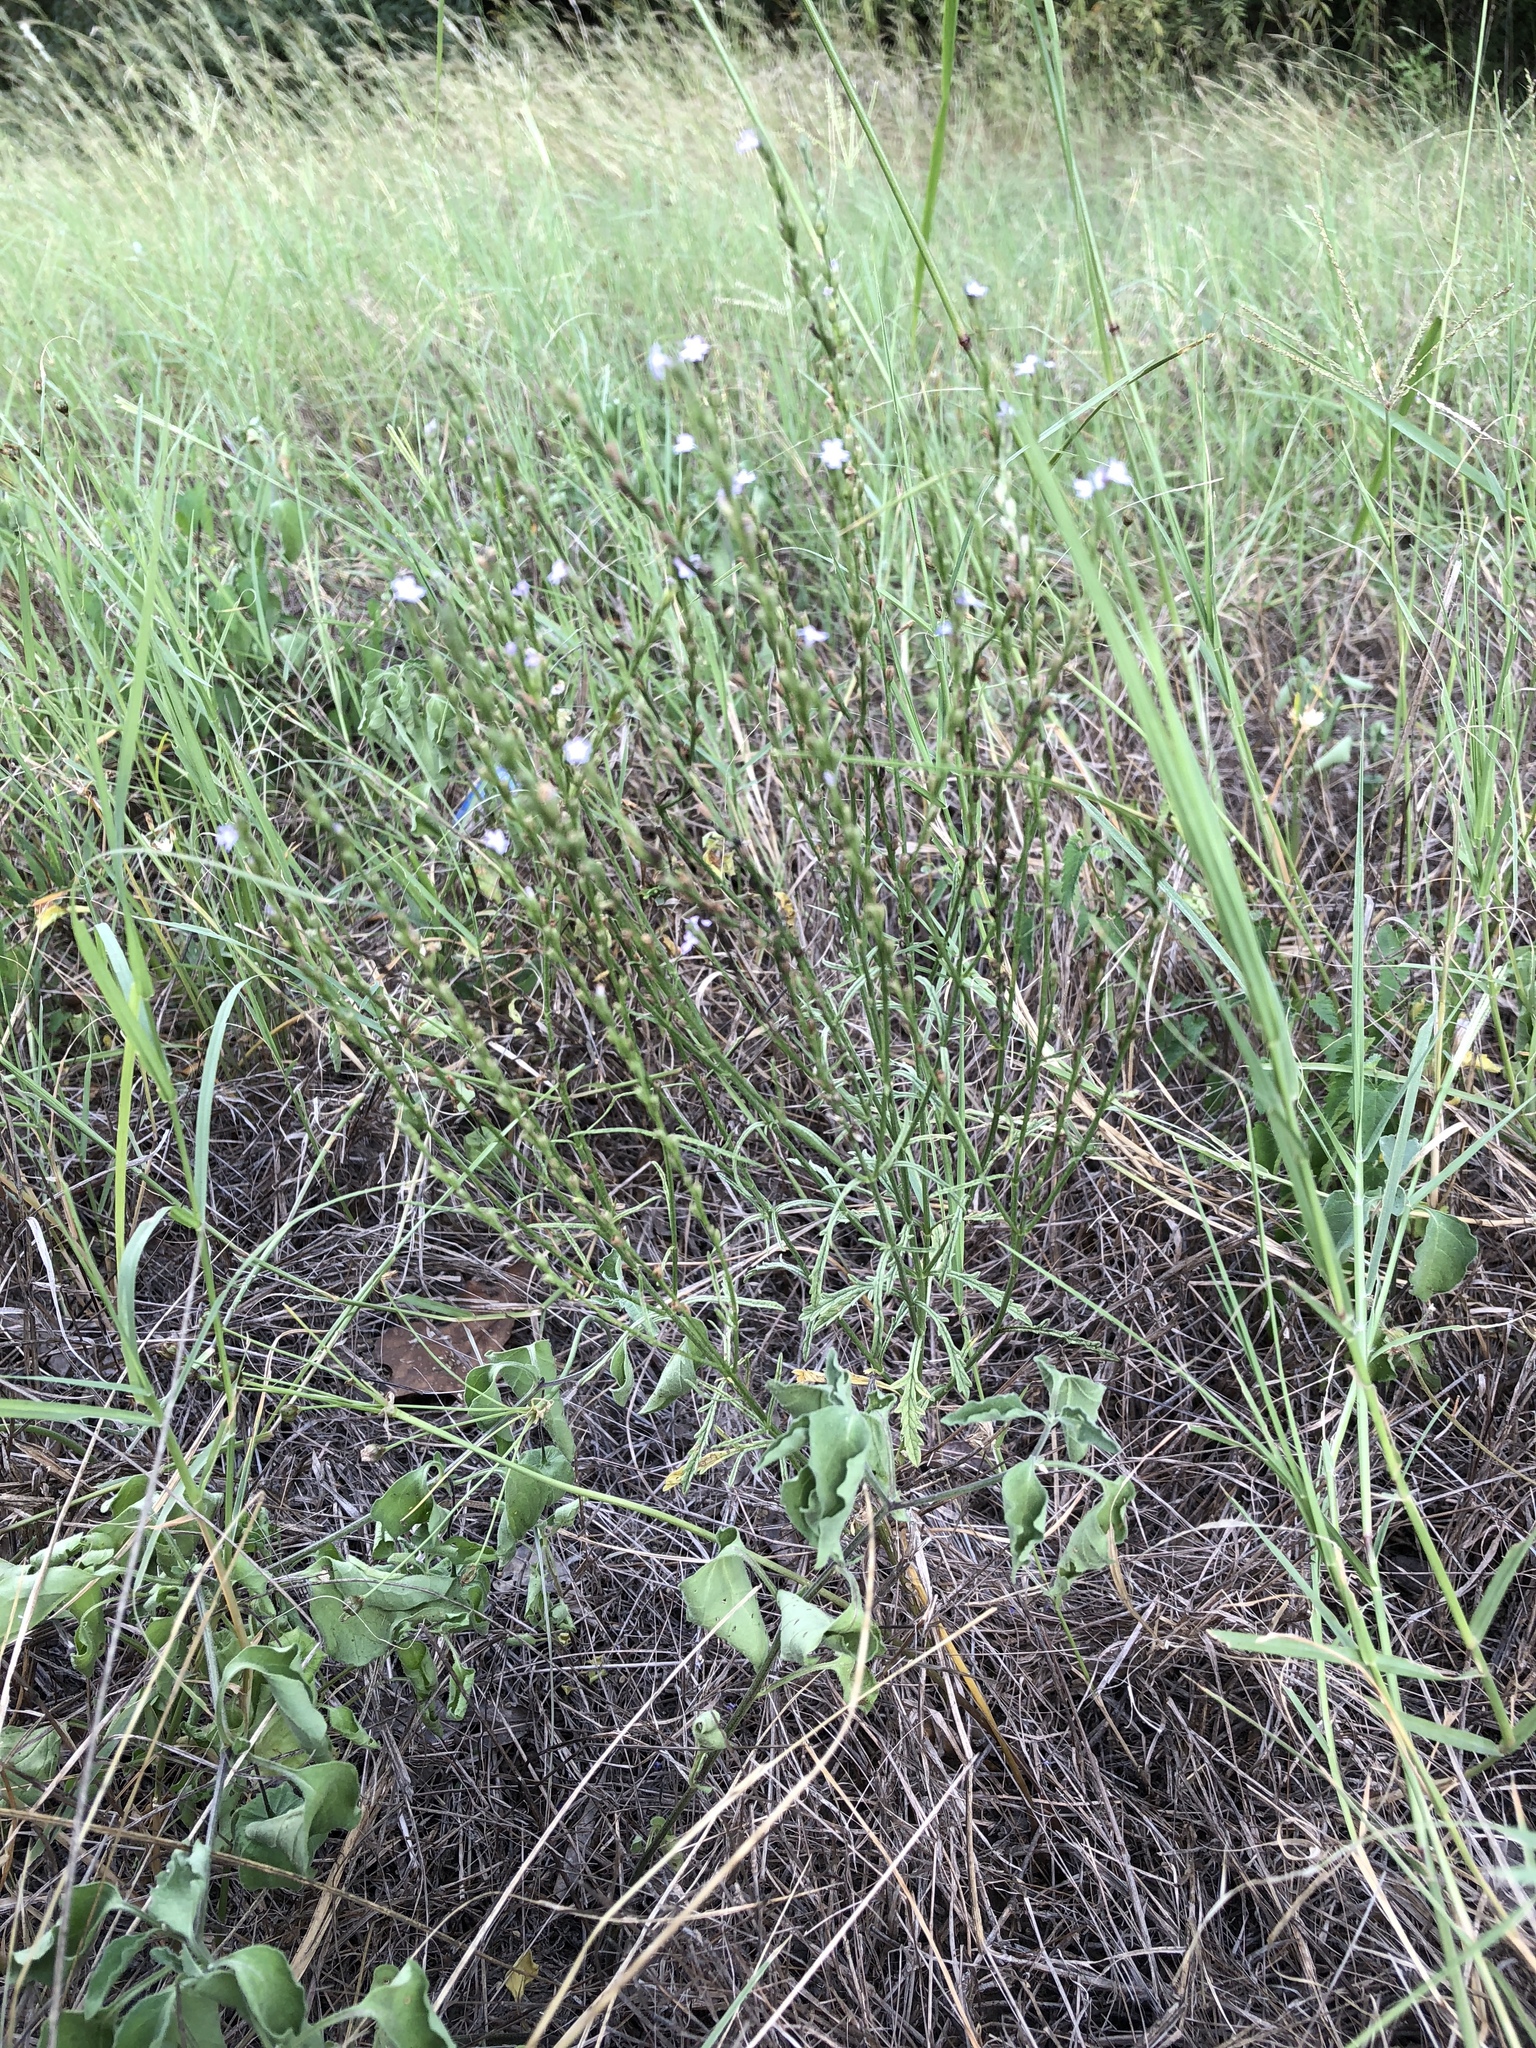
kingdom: Plantae
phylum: Tracheophyta
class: Magnoliopsida
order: Lamiales
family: Verbenaceae
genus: Verbena
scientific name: Verbena halei
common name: Texas vervain
